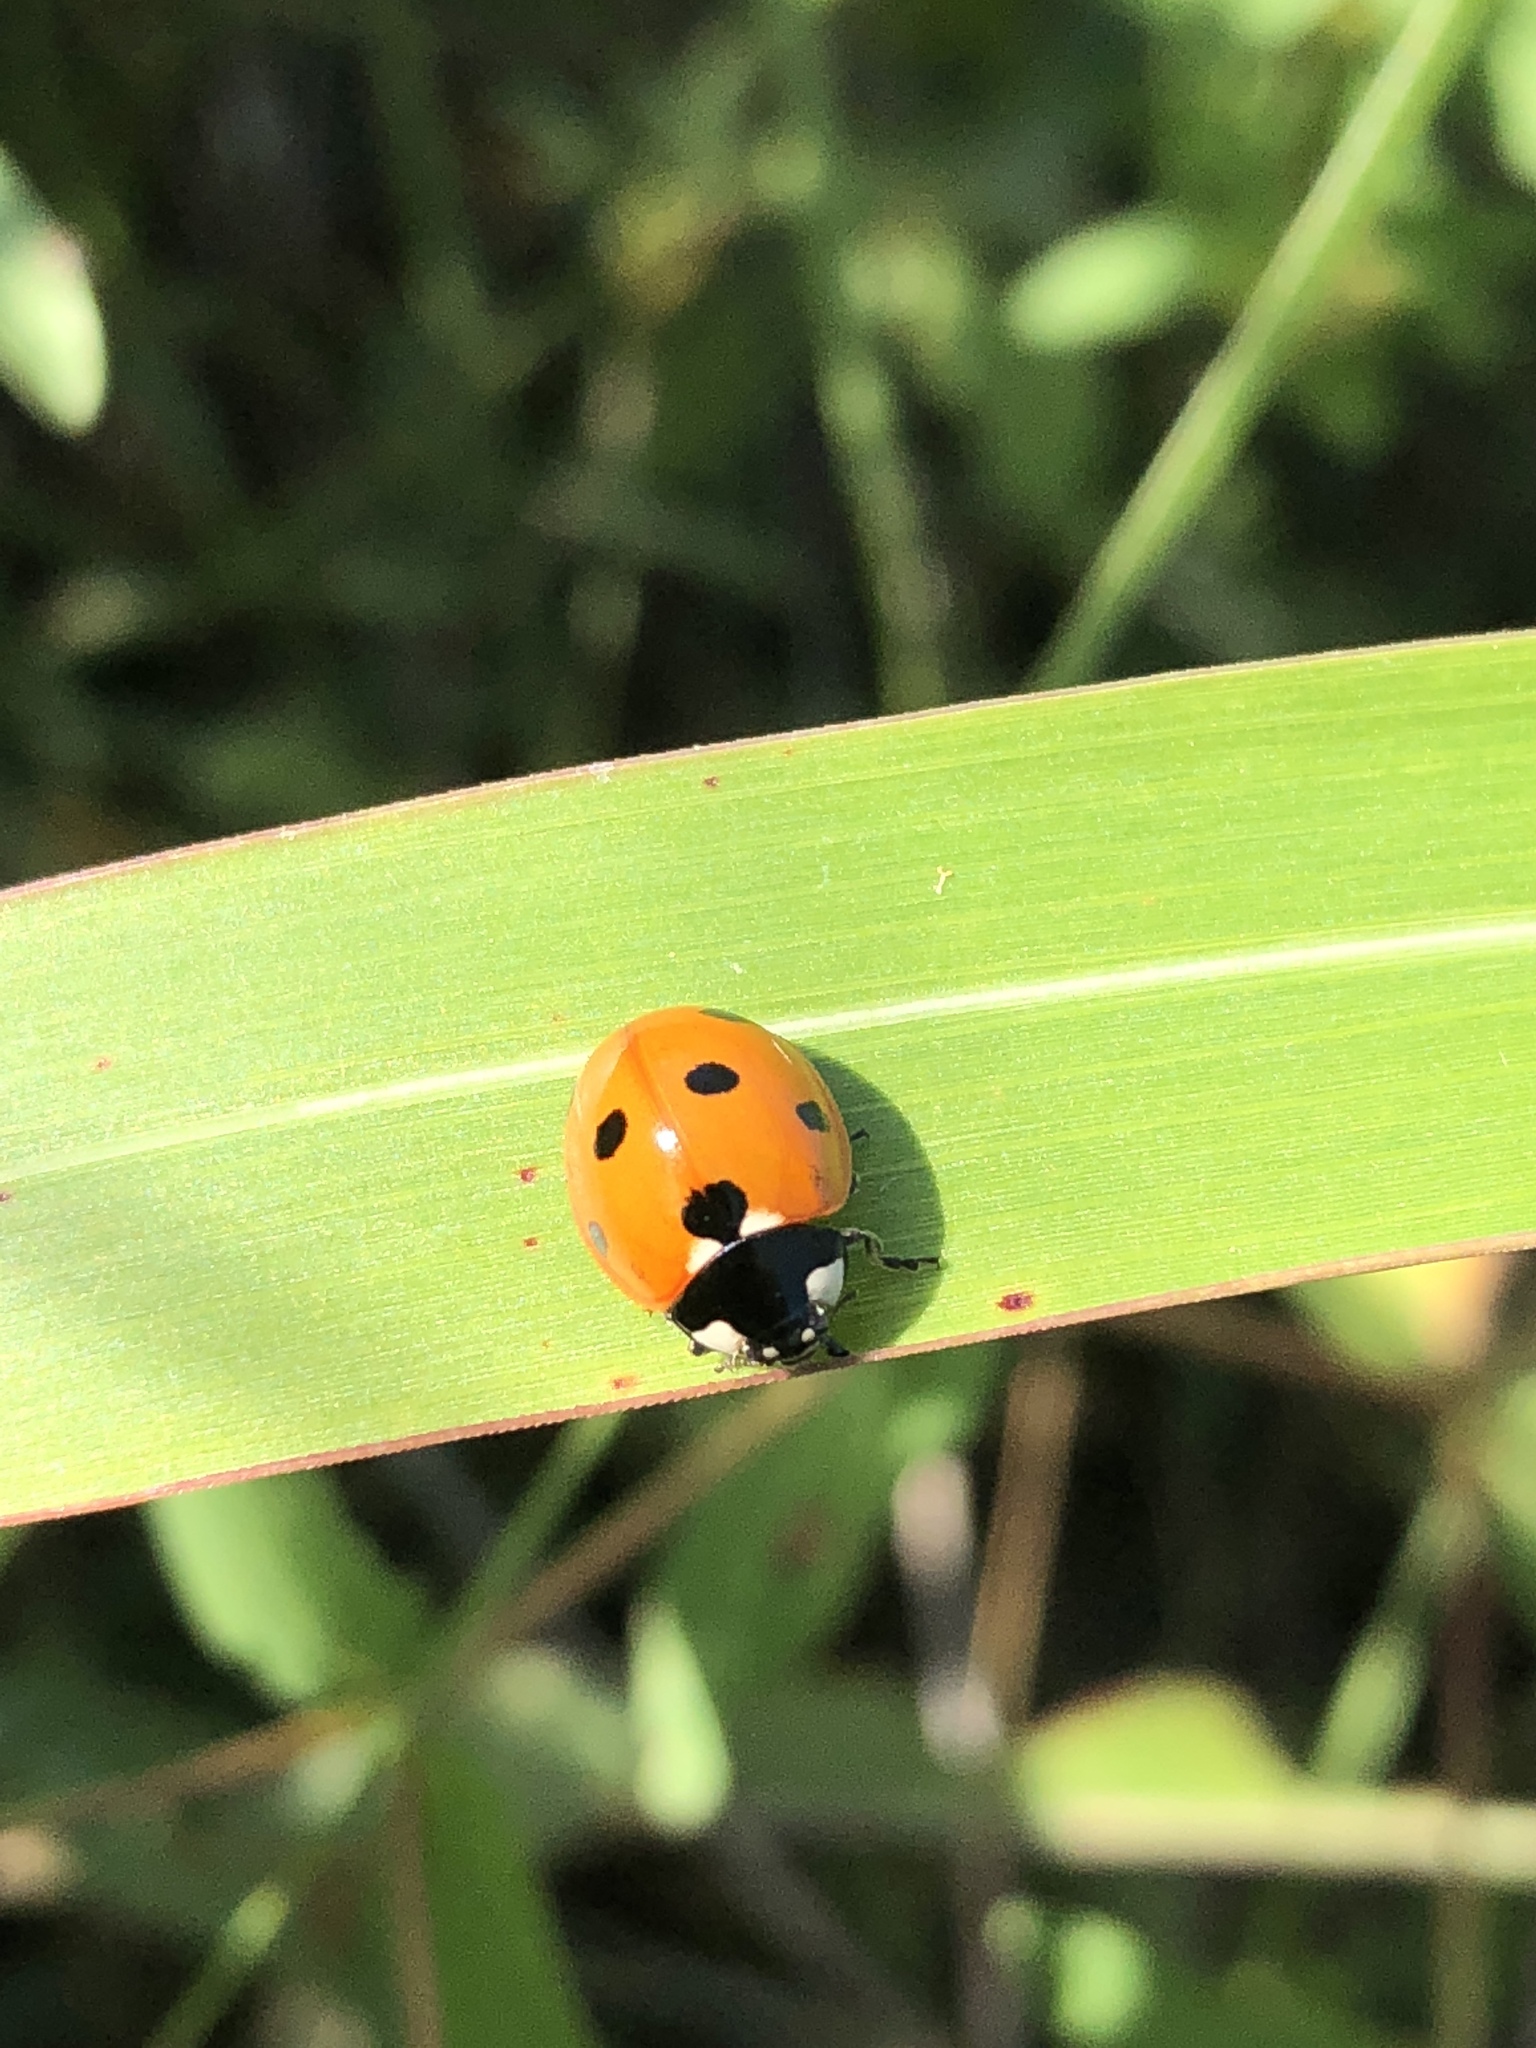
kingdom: Animalia
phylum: Arthropoda
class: Insecta
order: Coleoptera
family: Coccinellidae
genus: Coccinella
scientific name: Coccinella septempunctata
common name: Sevenspotted lady beetle
